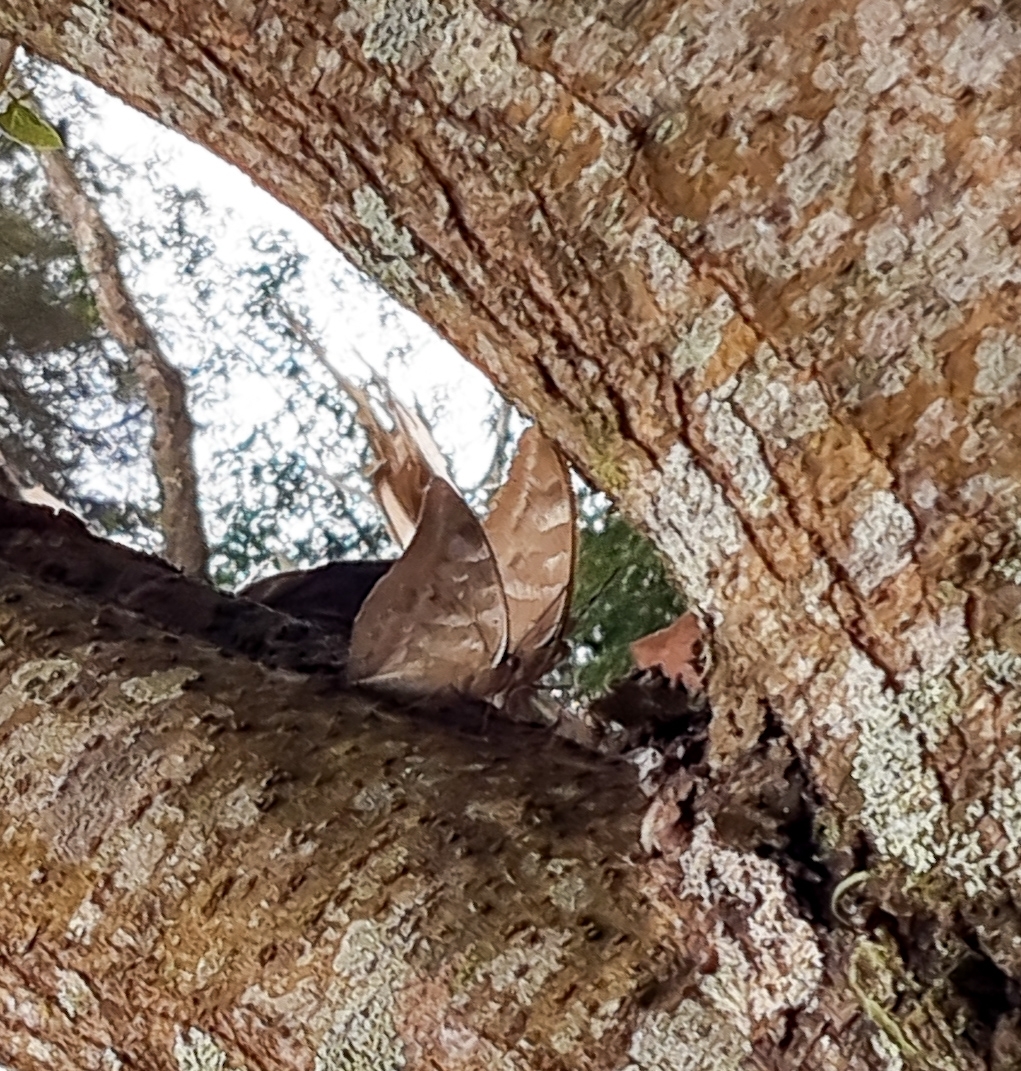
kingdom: Animalia
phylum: Arthropoda
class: Insecta
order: Lepidoptera
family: Nymphalidae
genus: Prepona
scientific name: Prepona demophon
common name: One-spotted prepona
